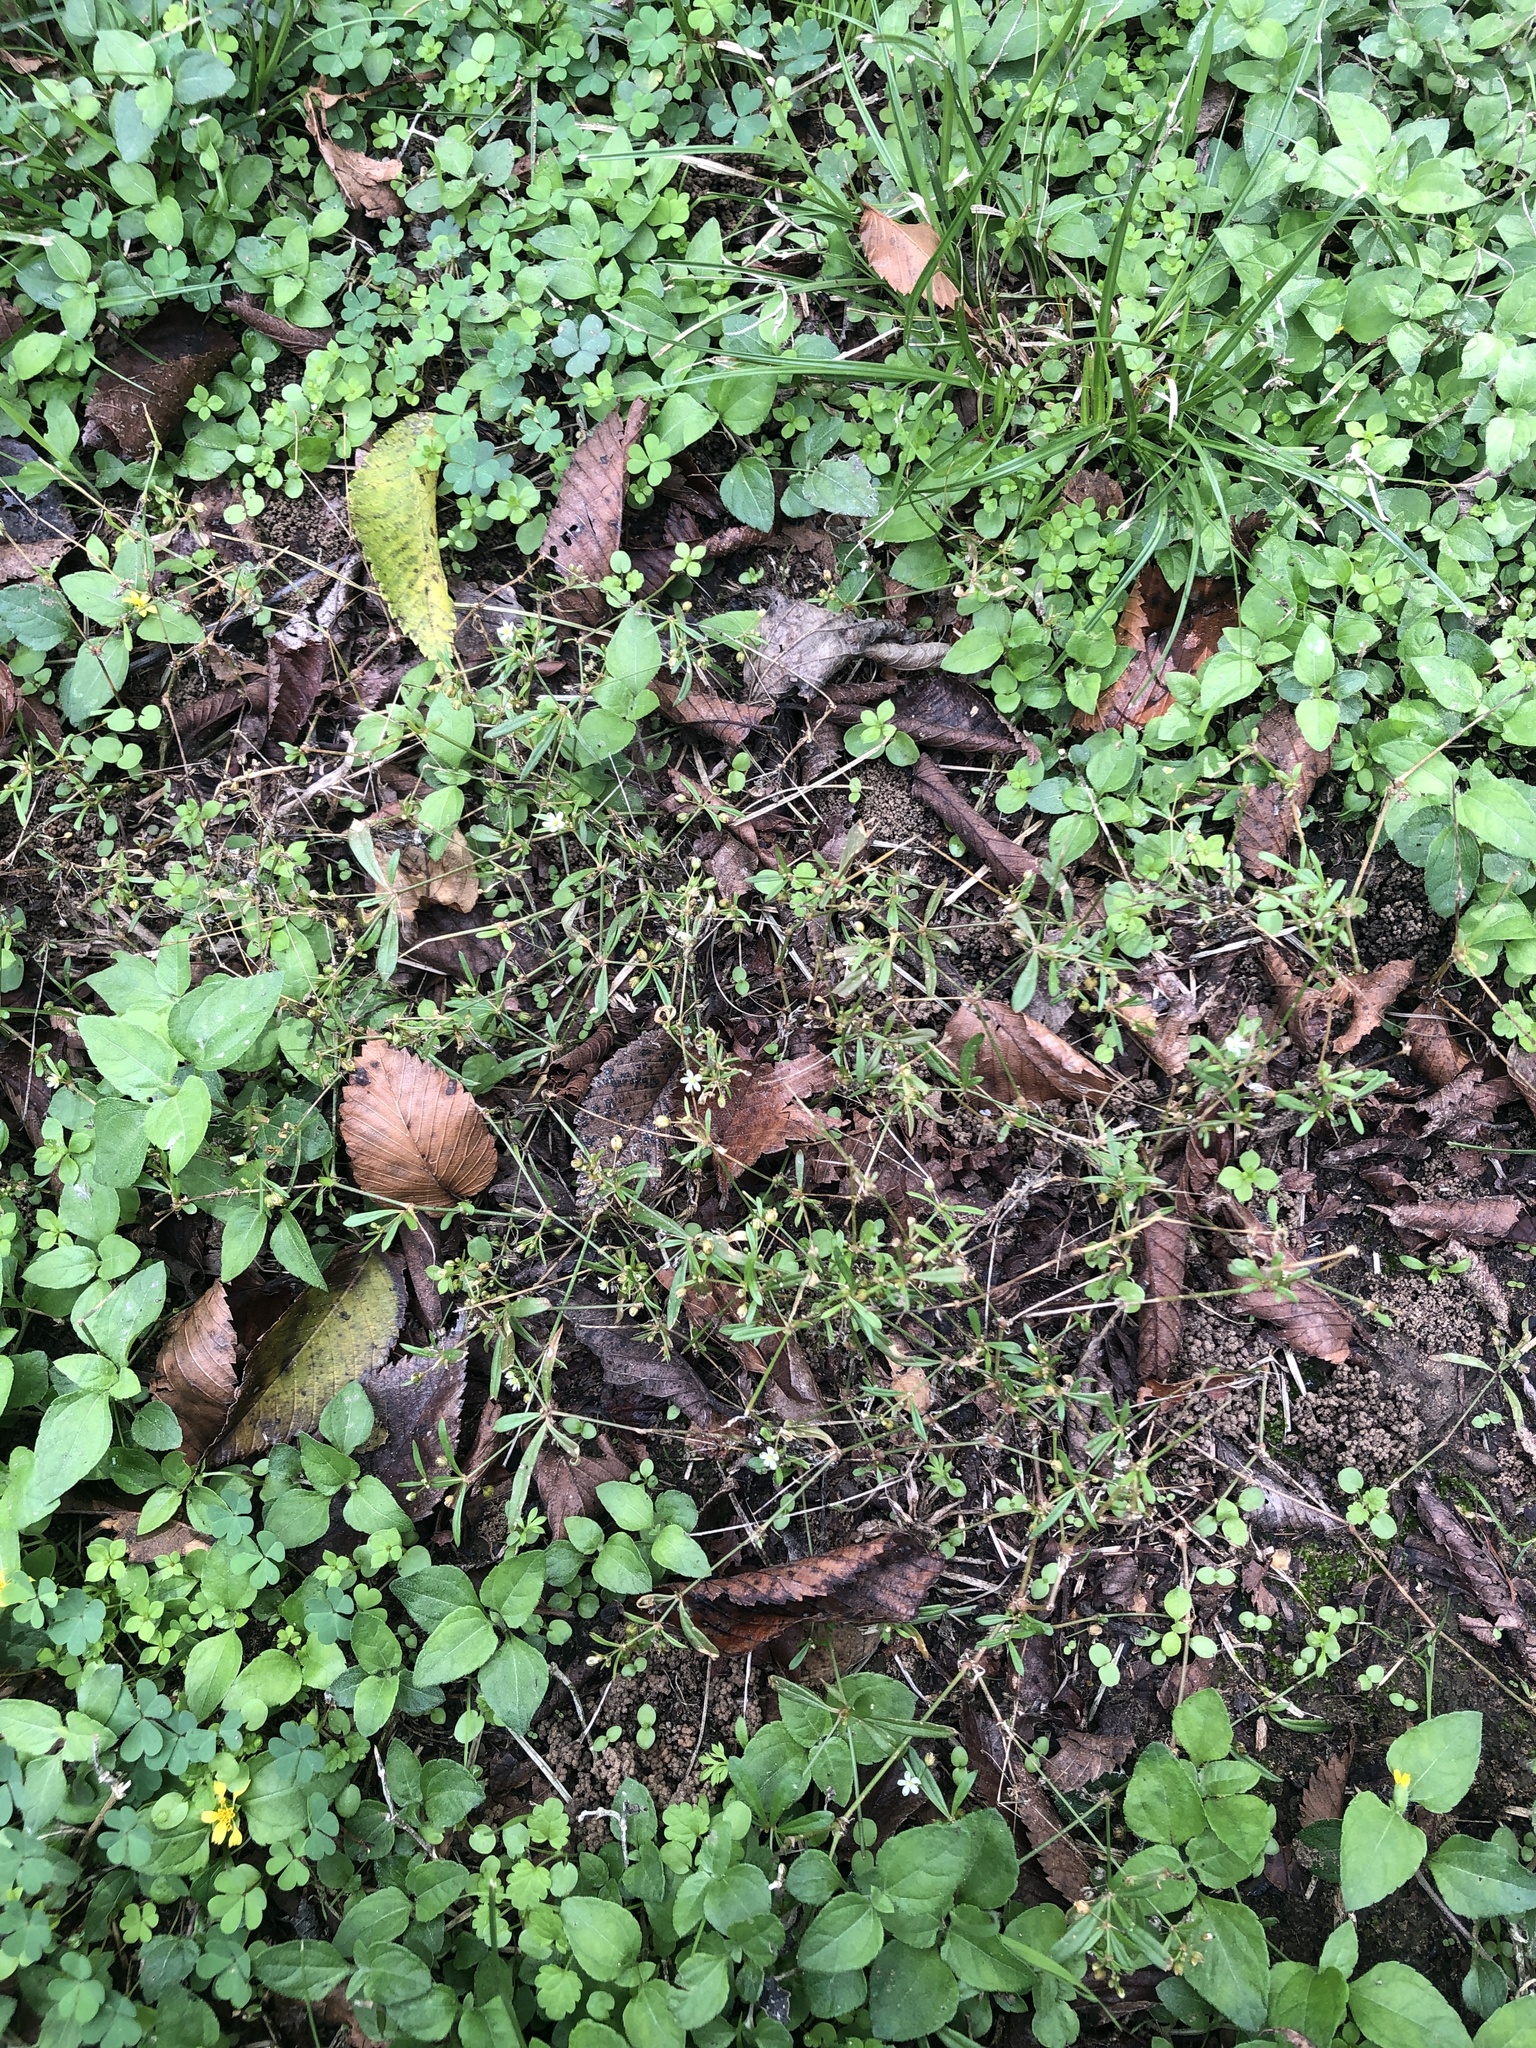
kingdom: Plantae
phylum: Tracheophyta
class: Magnoliopsida
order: Caryophyllales
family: Molluginaceae
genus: Mollugo
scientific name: Mollugo verticillata
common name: Green carpetweed
